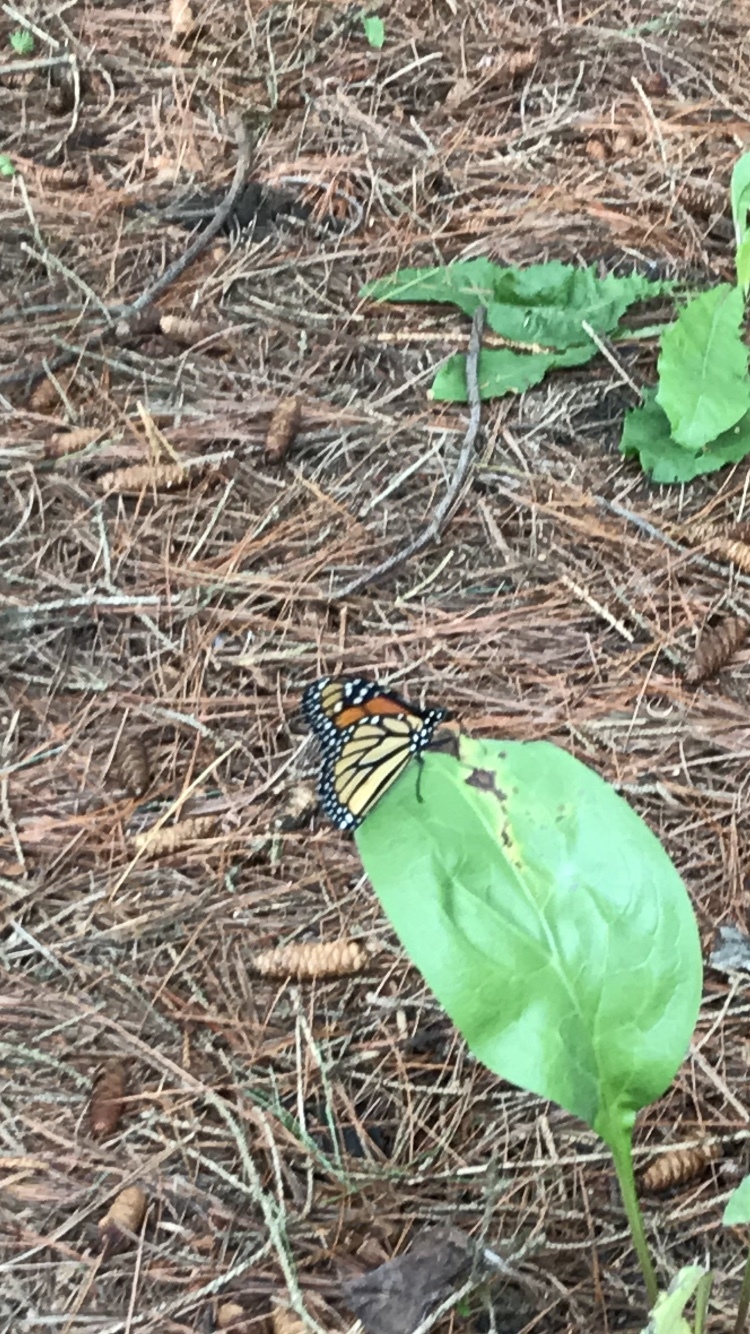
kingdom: Animalia
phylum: Arthropoda
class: Insecta
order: Lepidoptera
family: Nymphalidae
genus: Danaus
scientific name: Danaus plexippus
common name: Monarch
